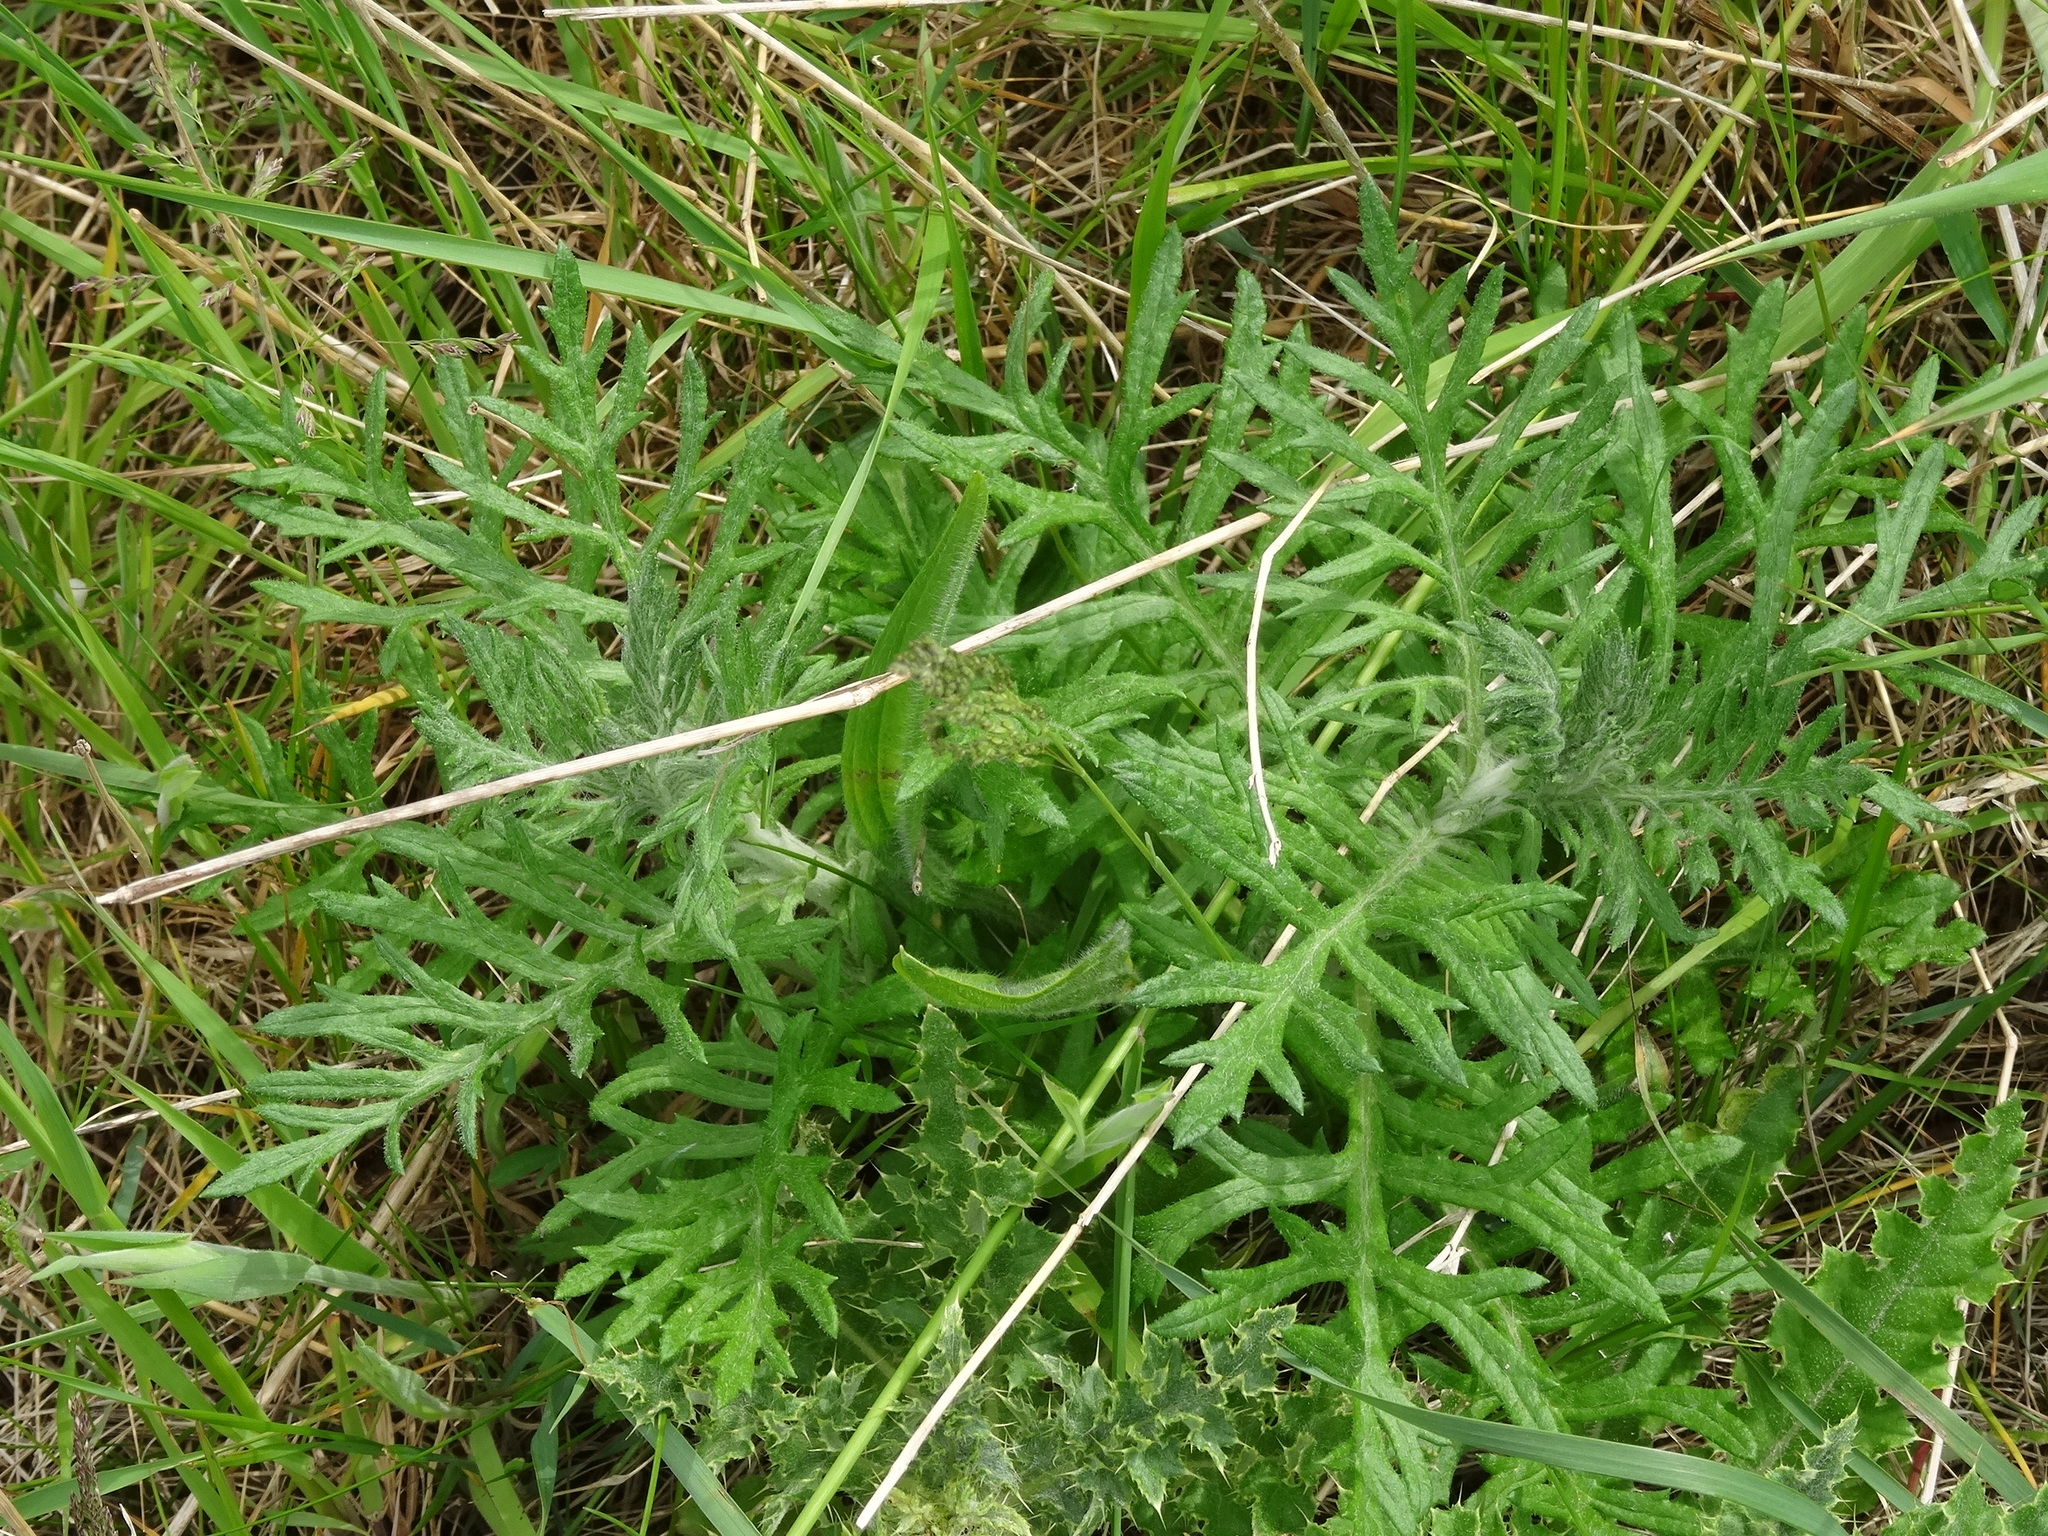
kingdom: Plantae
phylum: Tracheophyta
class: Magnoliopsida
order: Asterales
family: Asteraceae
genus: Jacobaea
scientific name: Jacobaea erucifolia
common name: Hoary ragwort
